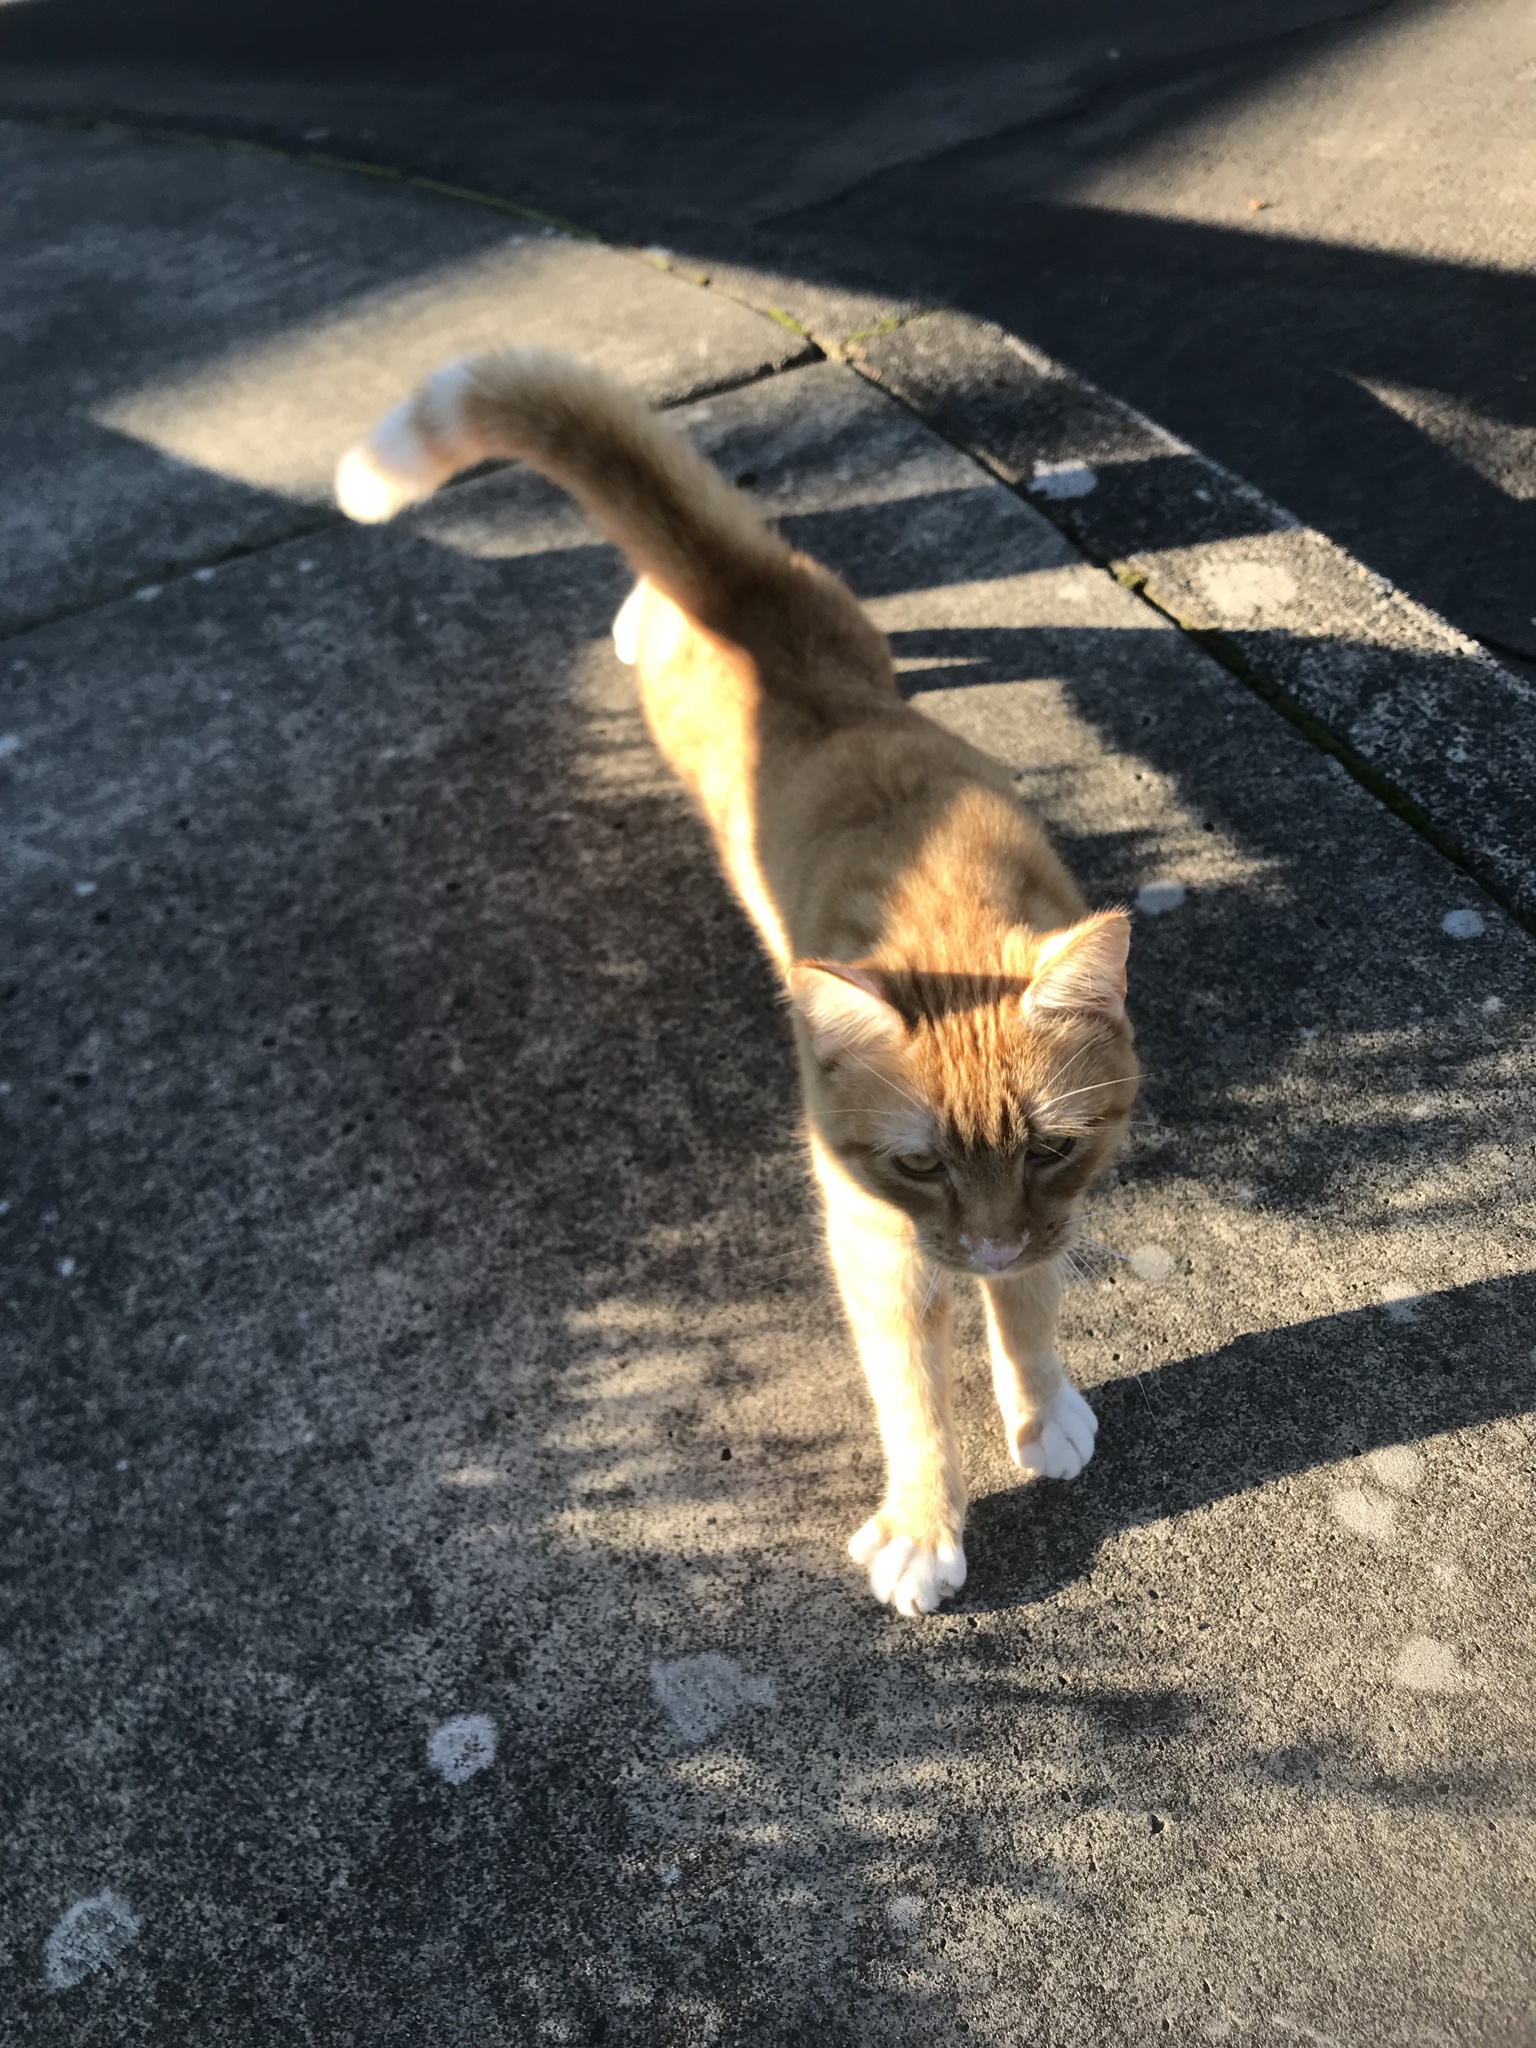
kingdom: Animalia
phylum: Chordata
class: Mammalia
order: Carnivora
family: Felidae
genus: Felis
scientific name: Felis catus
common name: Domestic cat
